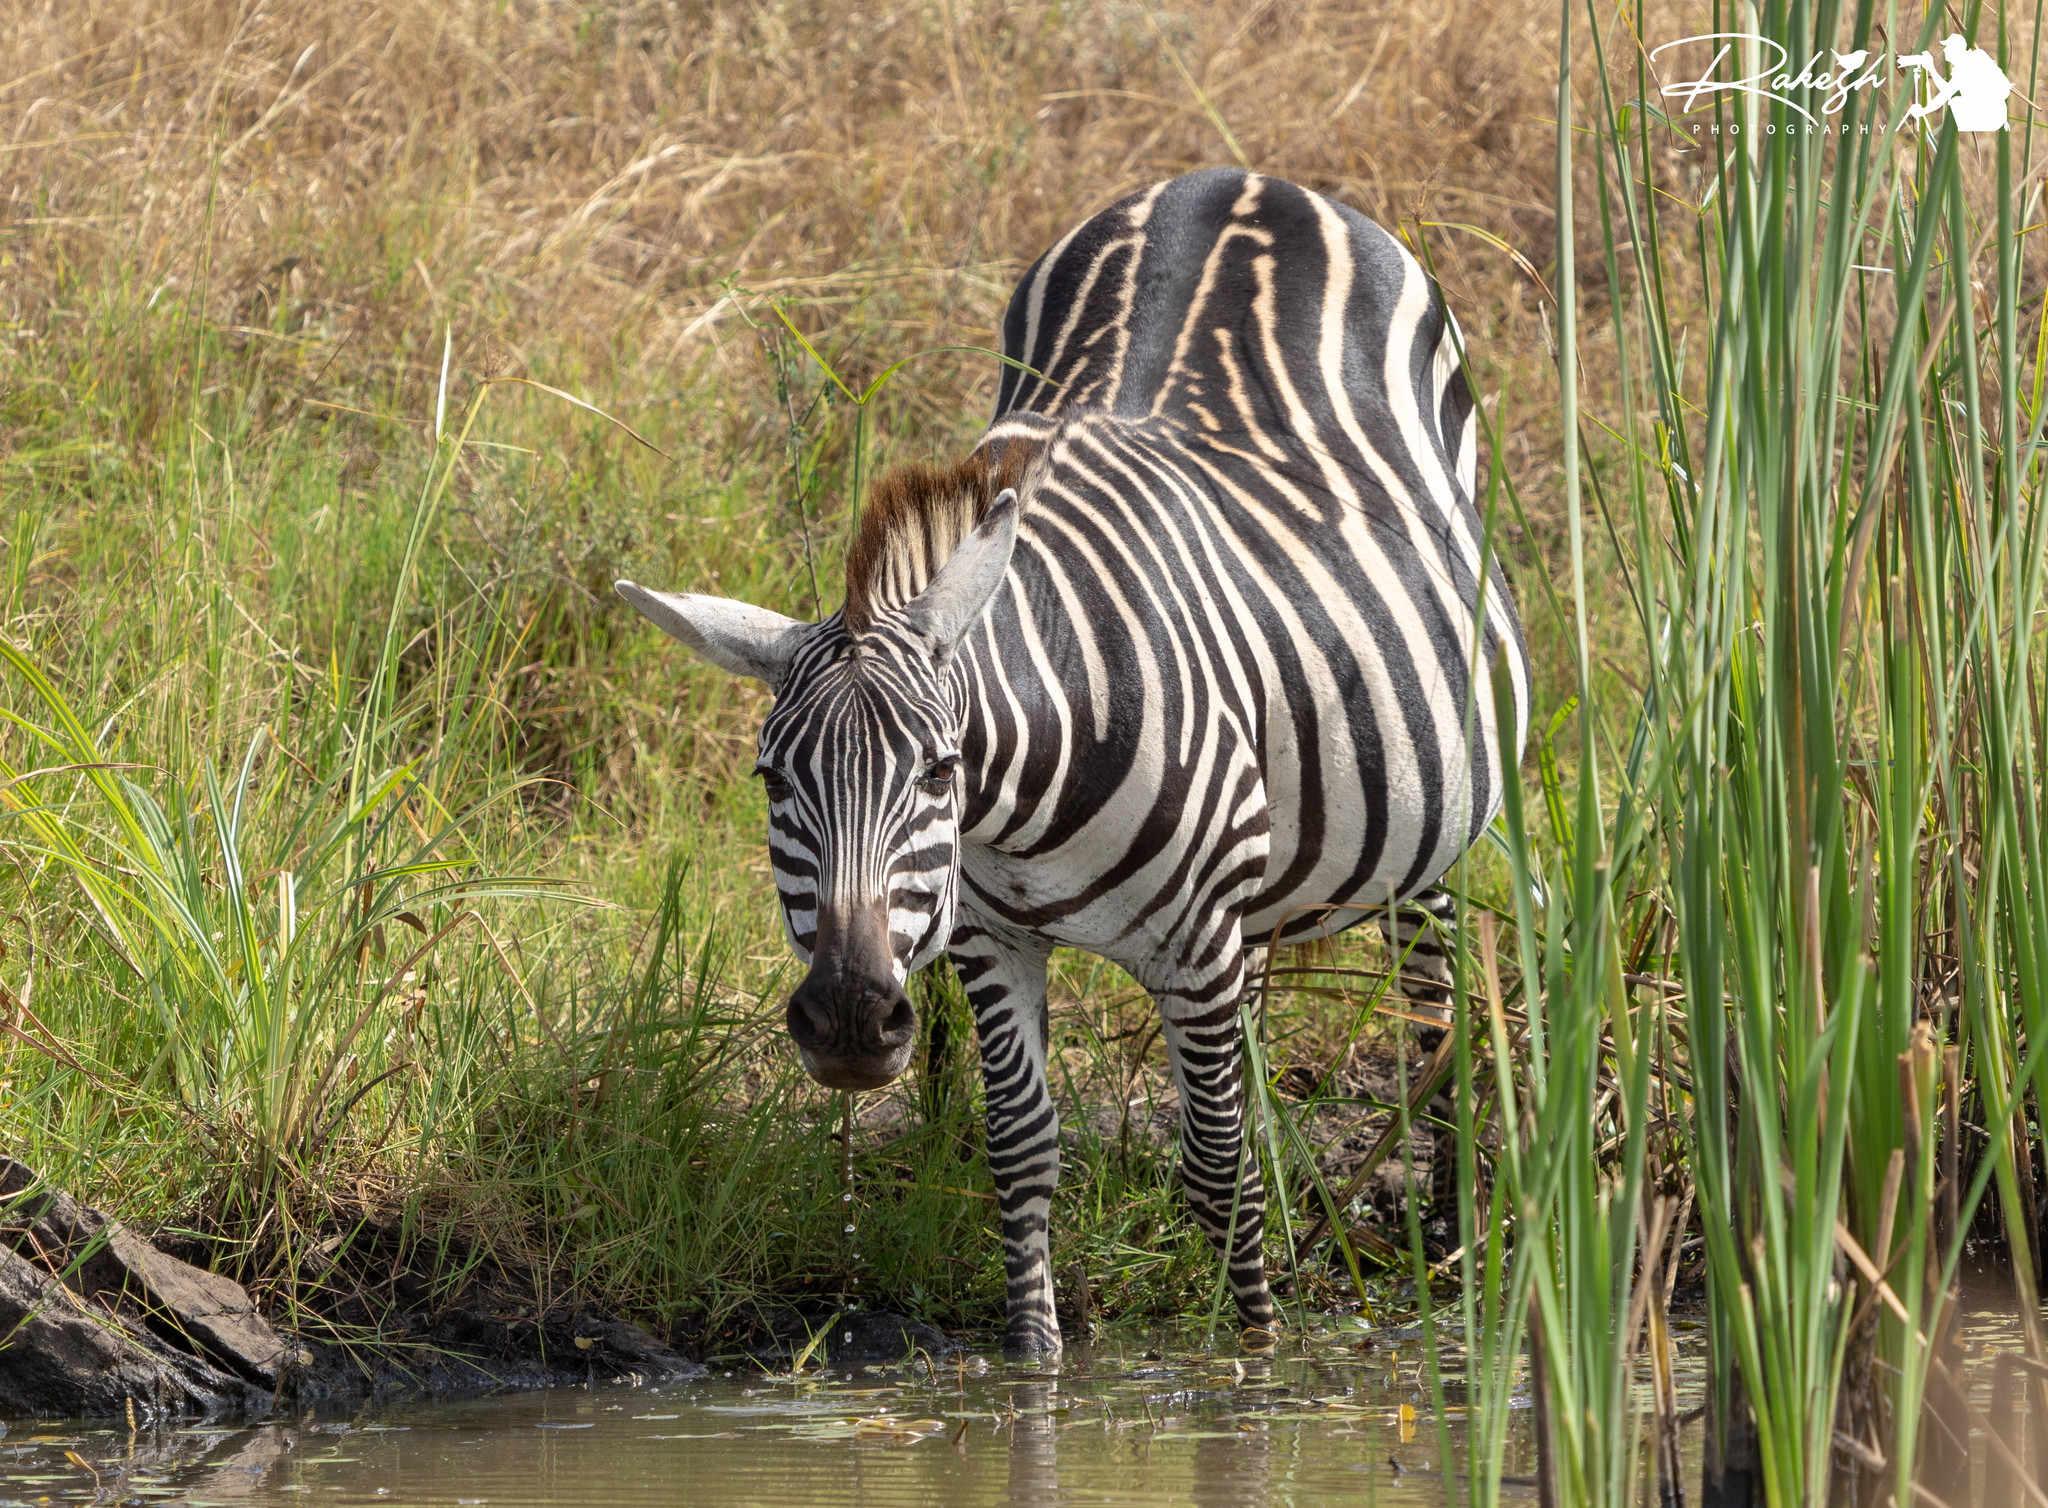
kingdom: Animalia
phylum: Chordata
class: Mammalia
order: Perissodactyla
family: Equidae
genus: Equus
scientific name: Equus quagga
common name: Plains zebra
